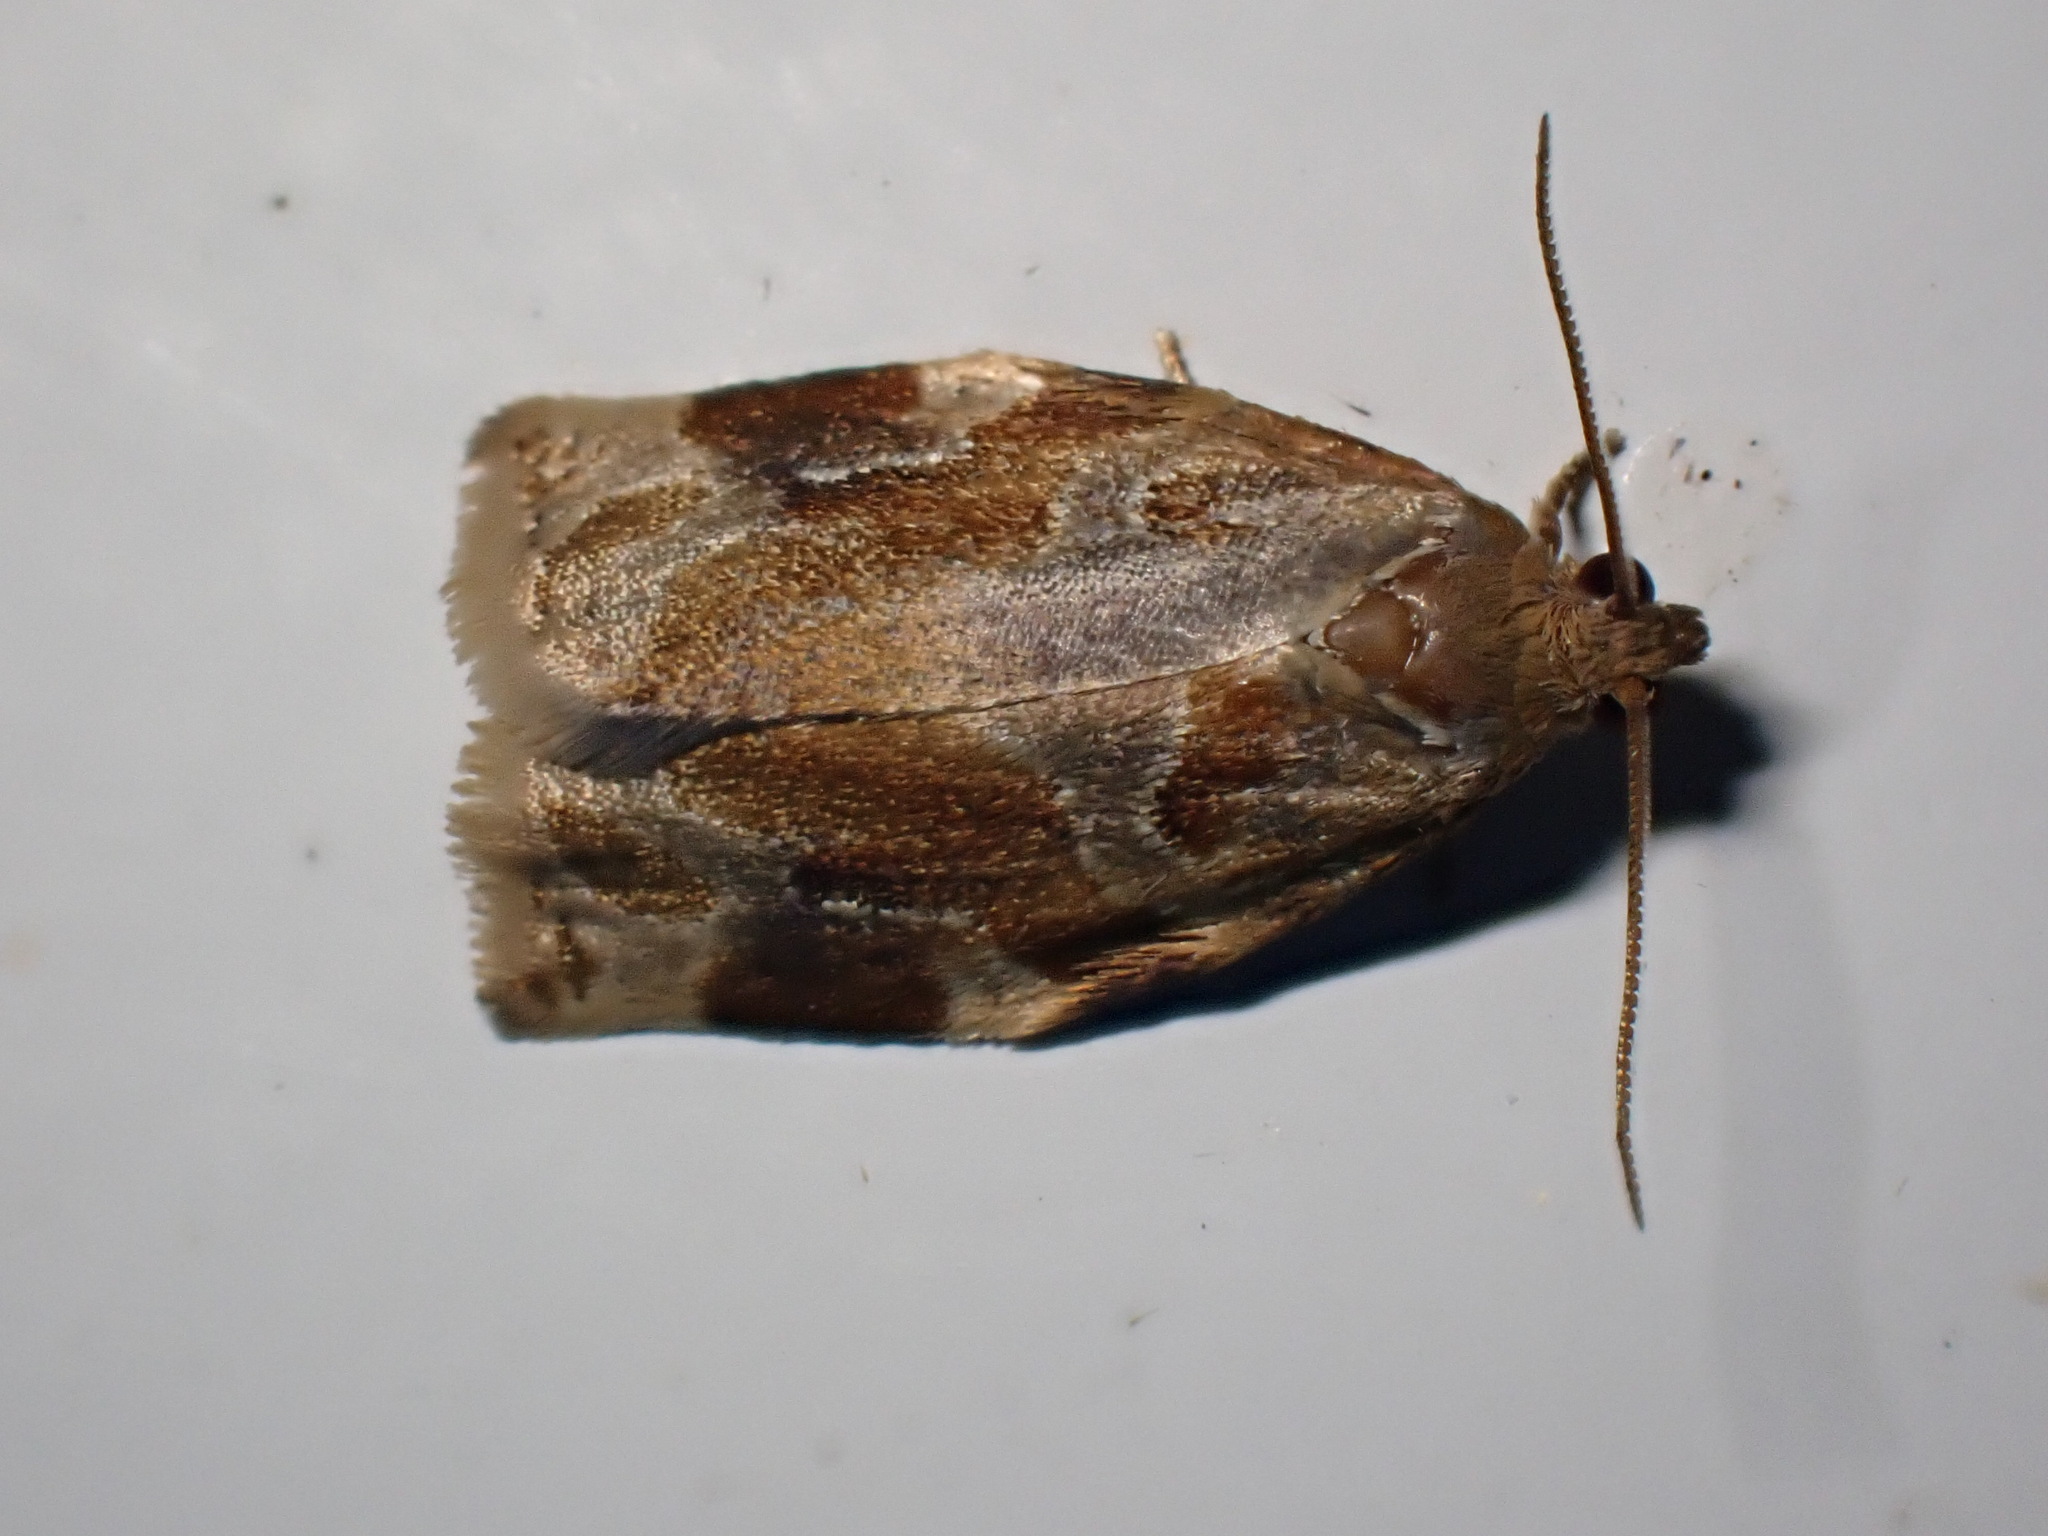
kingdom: Animalia
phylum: Arthropoda
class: Insecta
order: Lepidoptera
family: Tortricidae
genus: Archips
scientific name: Archips xylosteana
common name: Variegated golden tortrix
